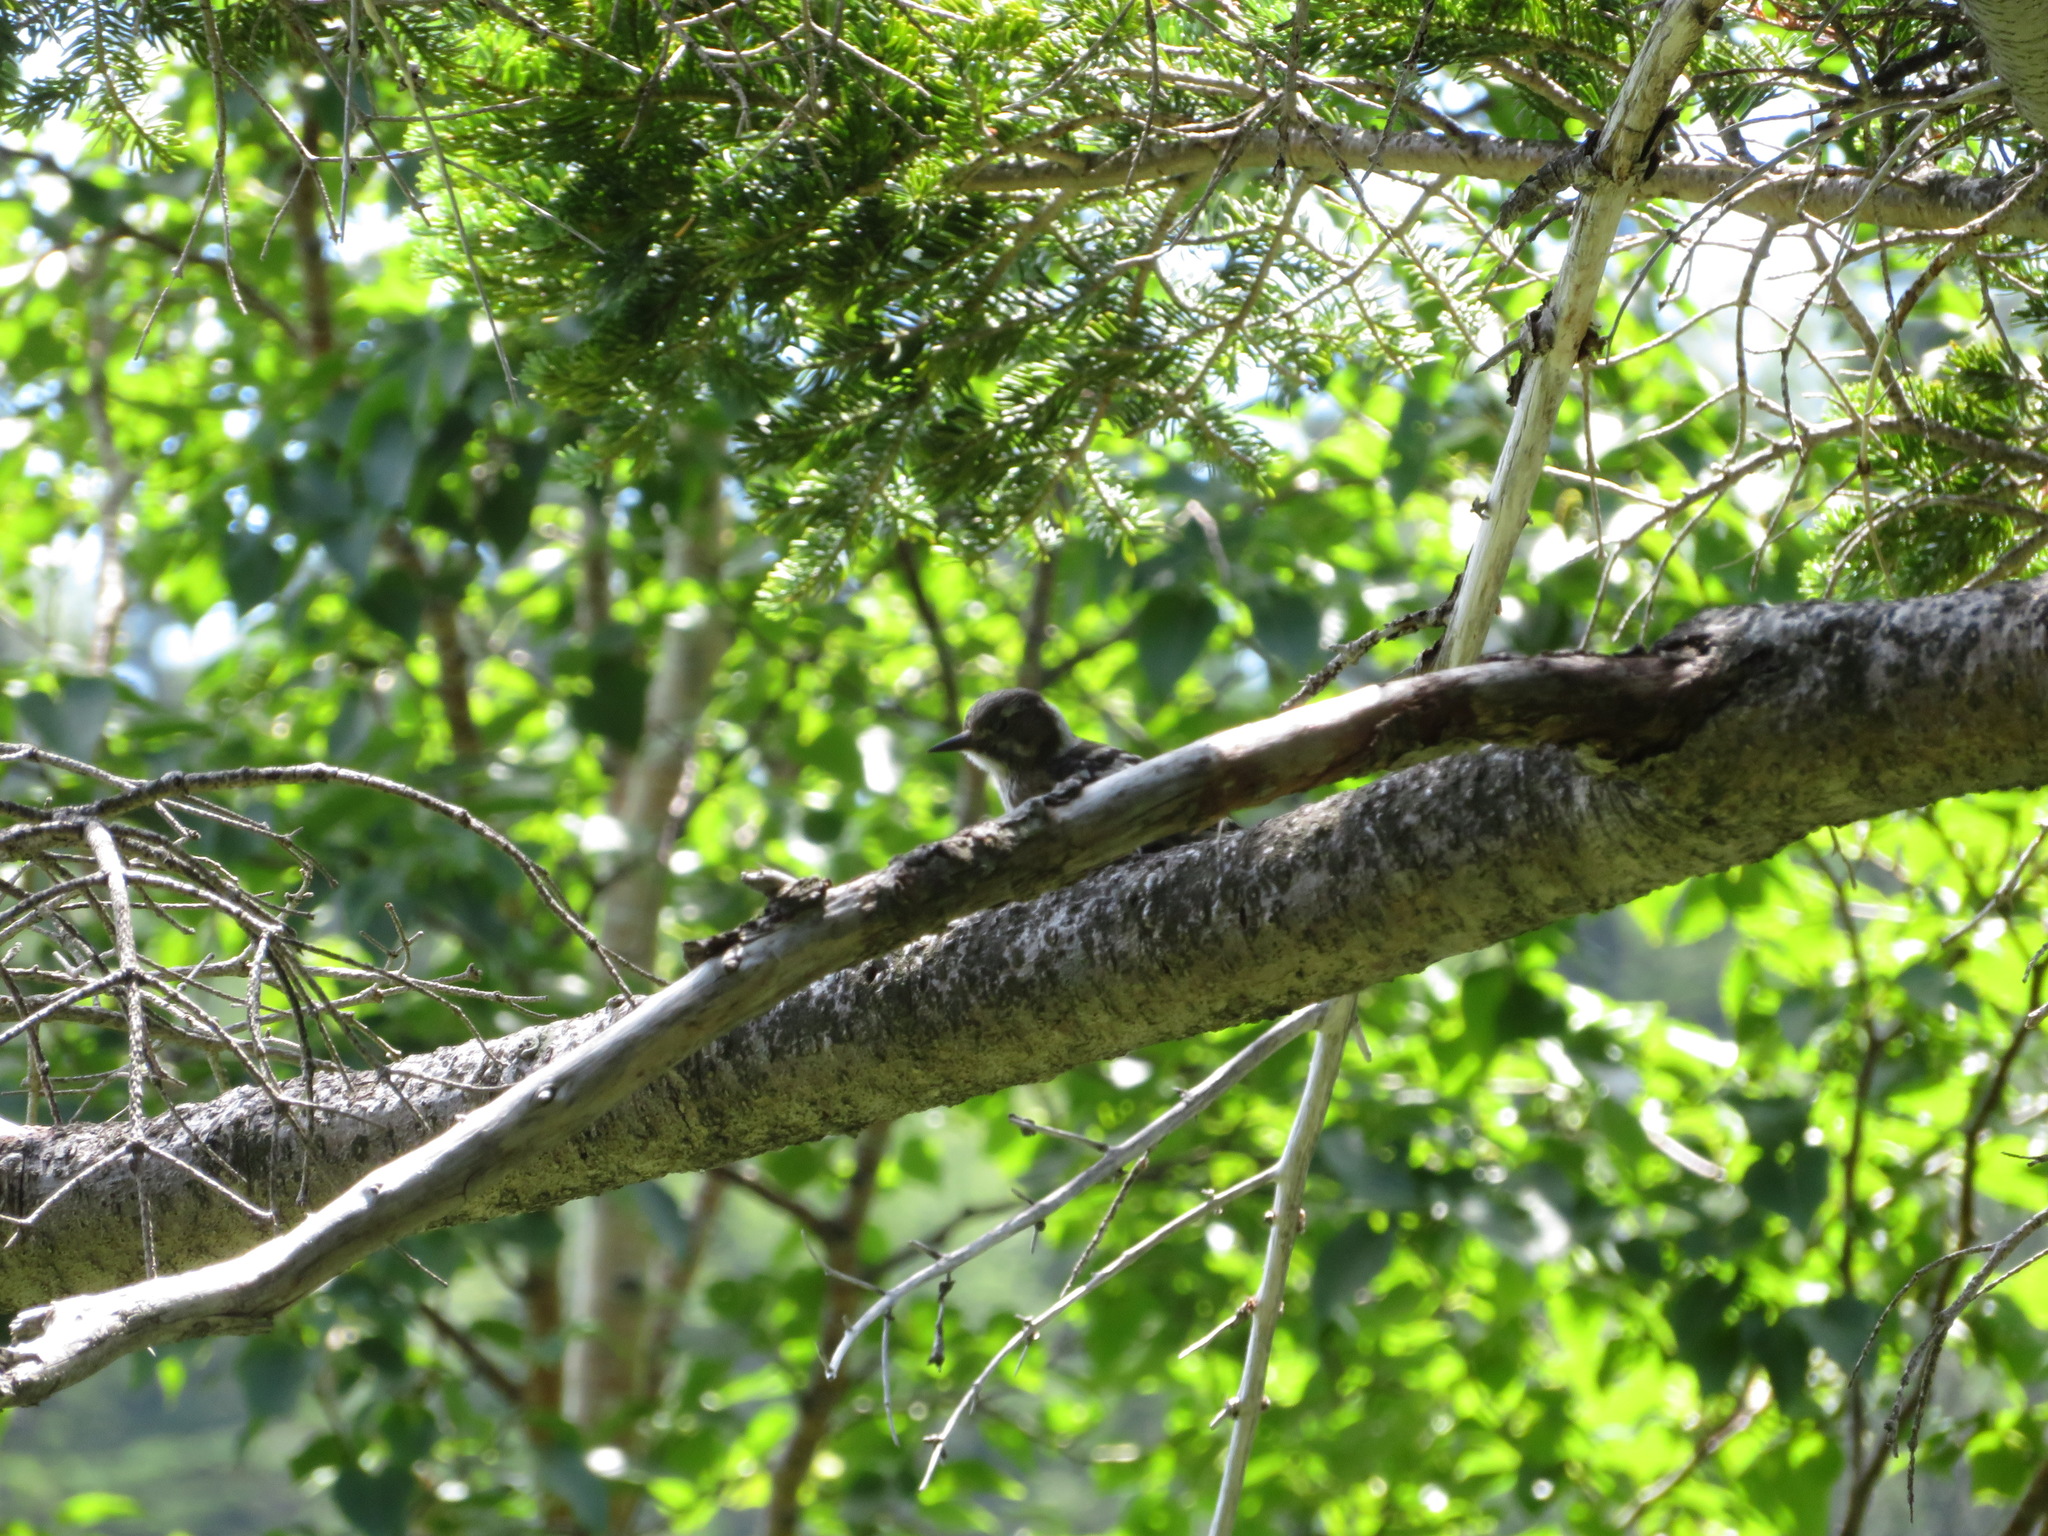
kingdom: Animalia
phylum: Chordata
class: Aves
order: Piciformes
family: Picidae
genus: Yungipicus
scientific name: Yungipicus kizuki
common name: Japanese pygmy woodpecker
